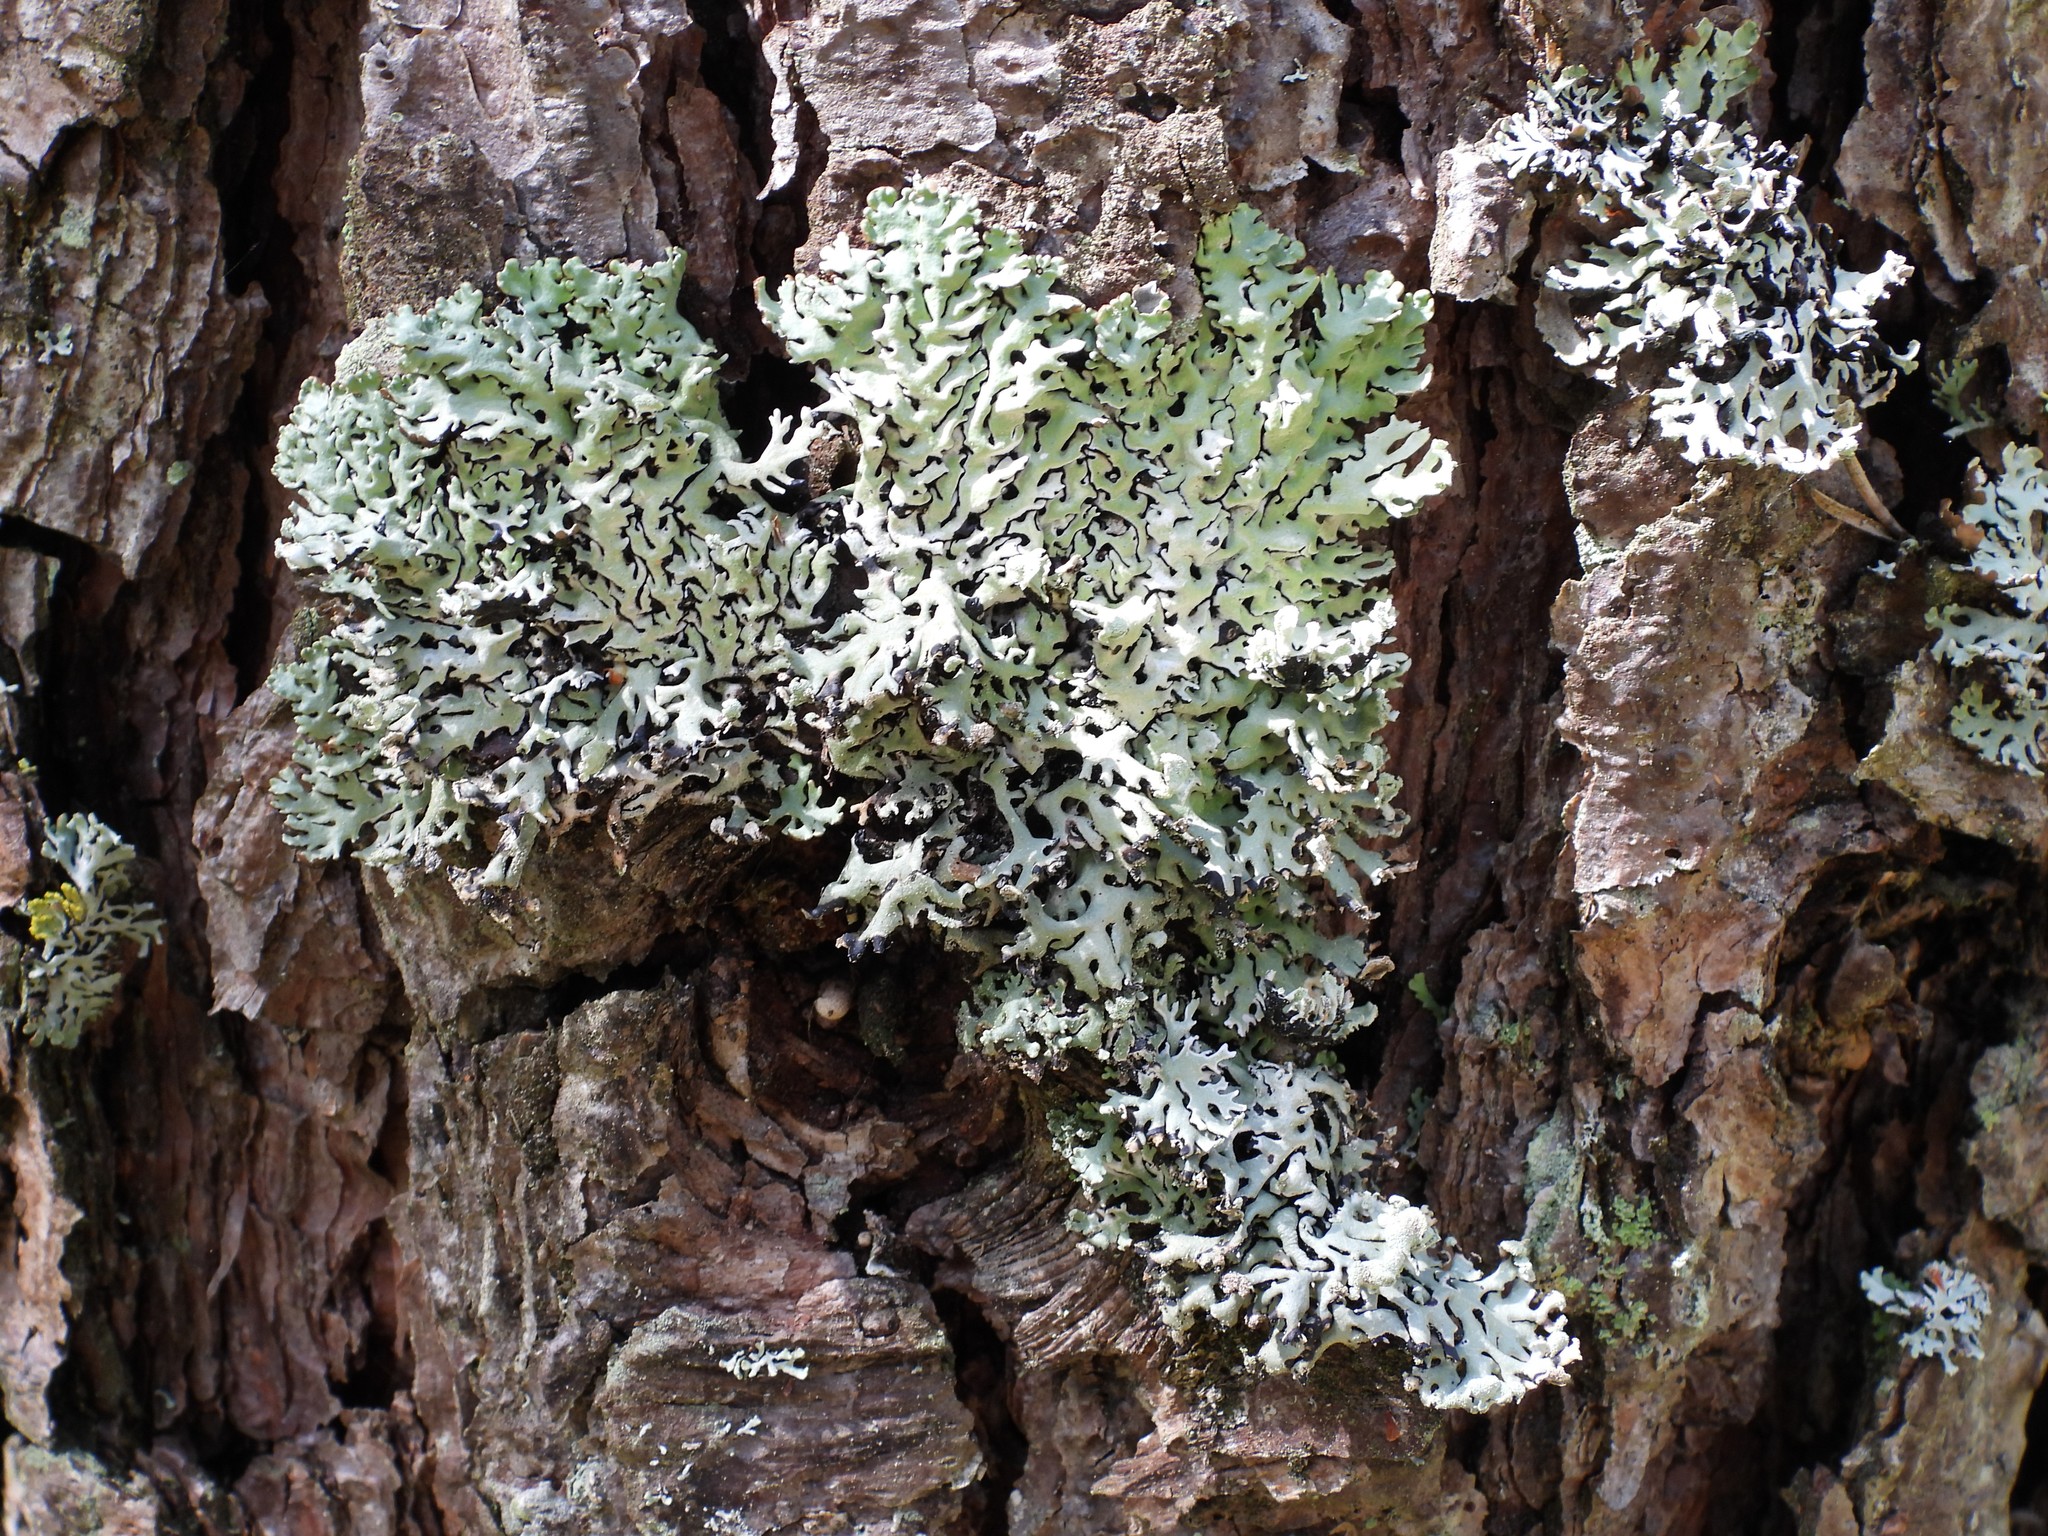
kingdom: Fungi
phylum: Ascomycota
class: Lecanoromycetes
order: Lecanorales
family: Parmeliaceae
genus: Hypogymnia
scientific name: Hypogymnia physodes
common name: Dark crottle
